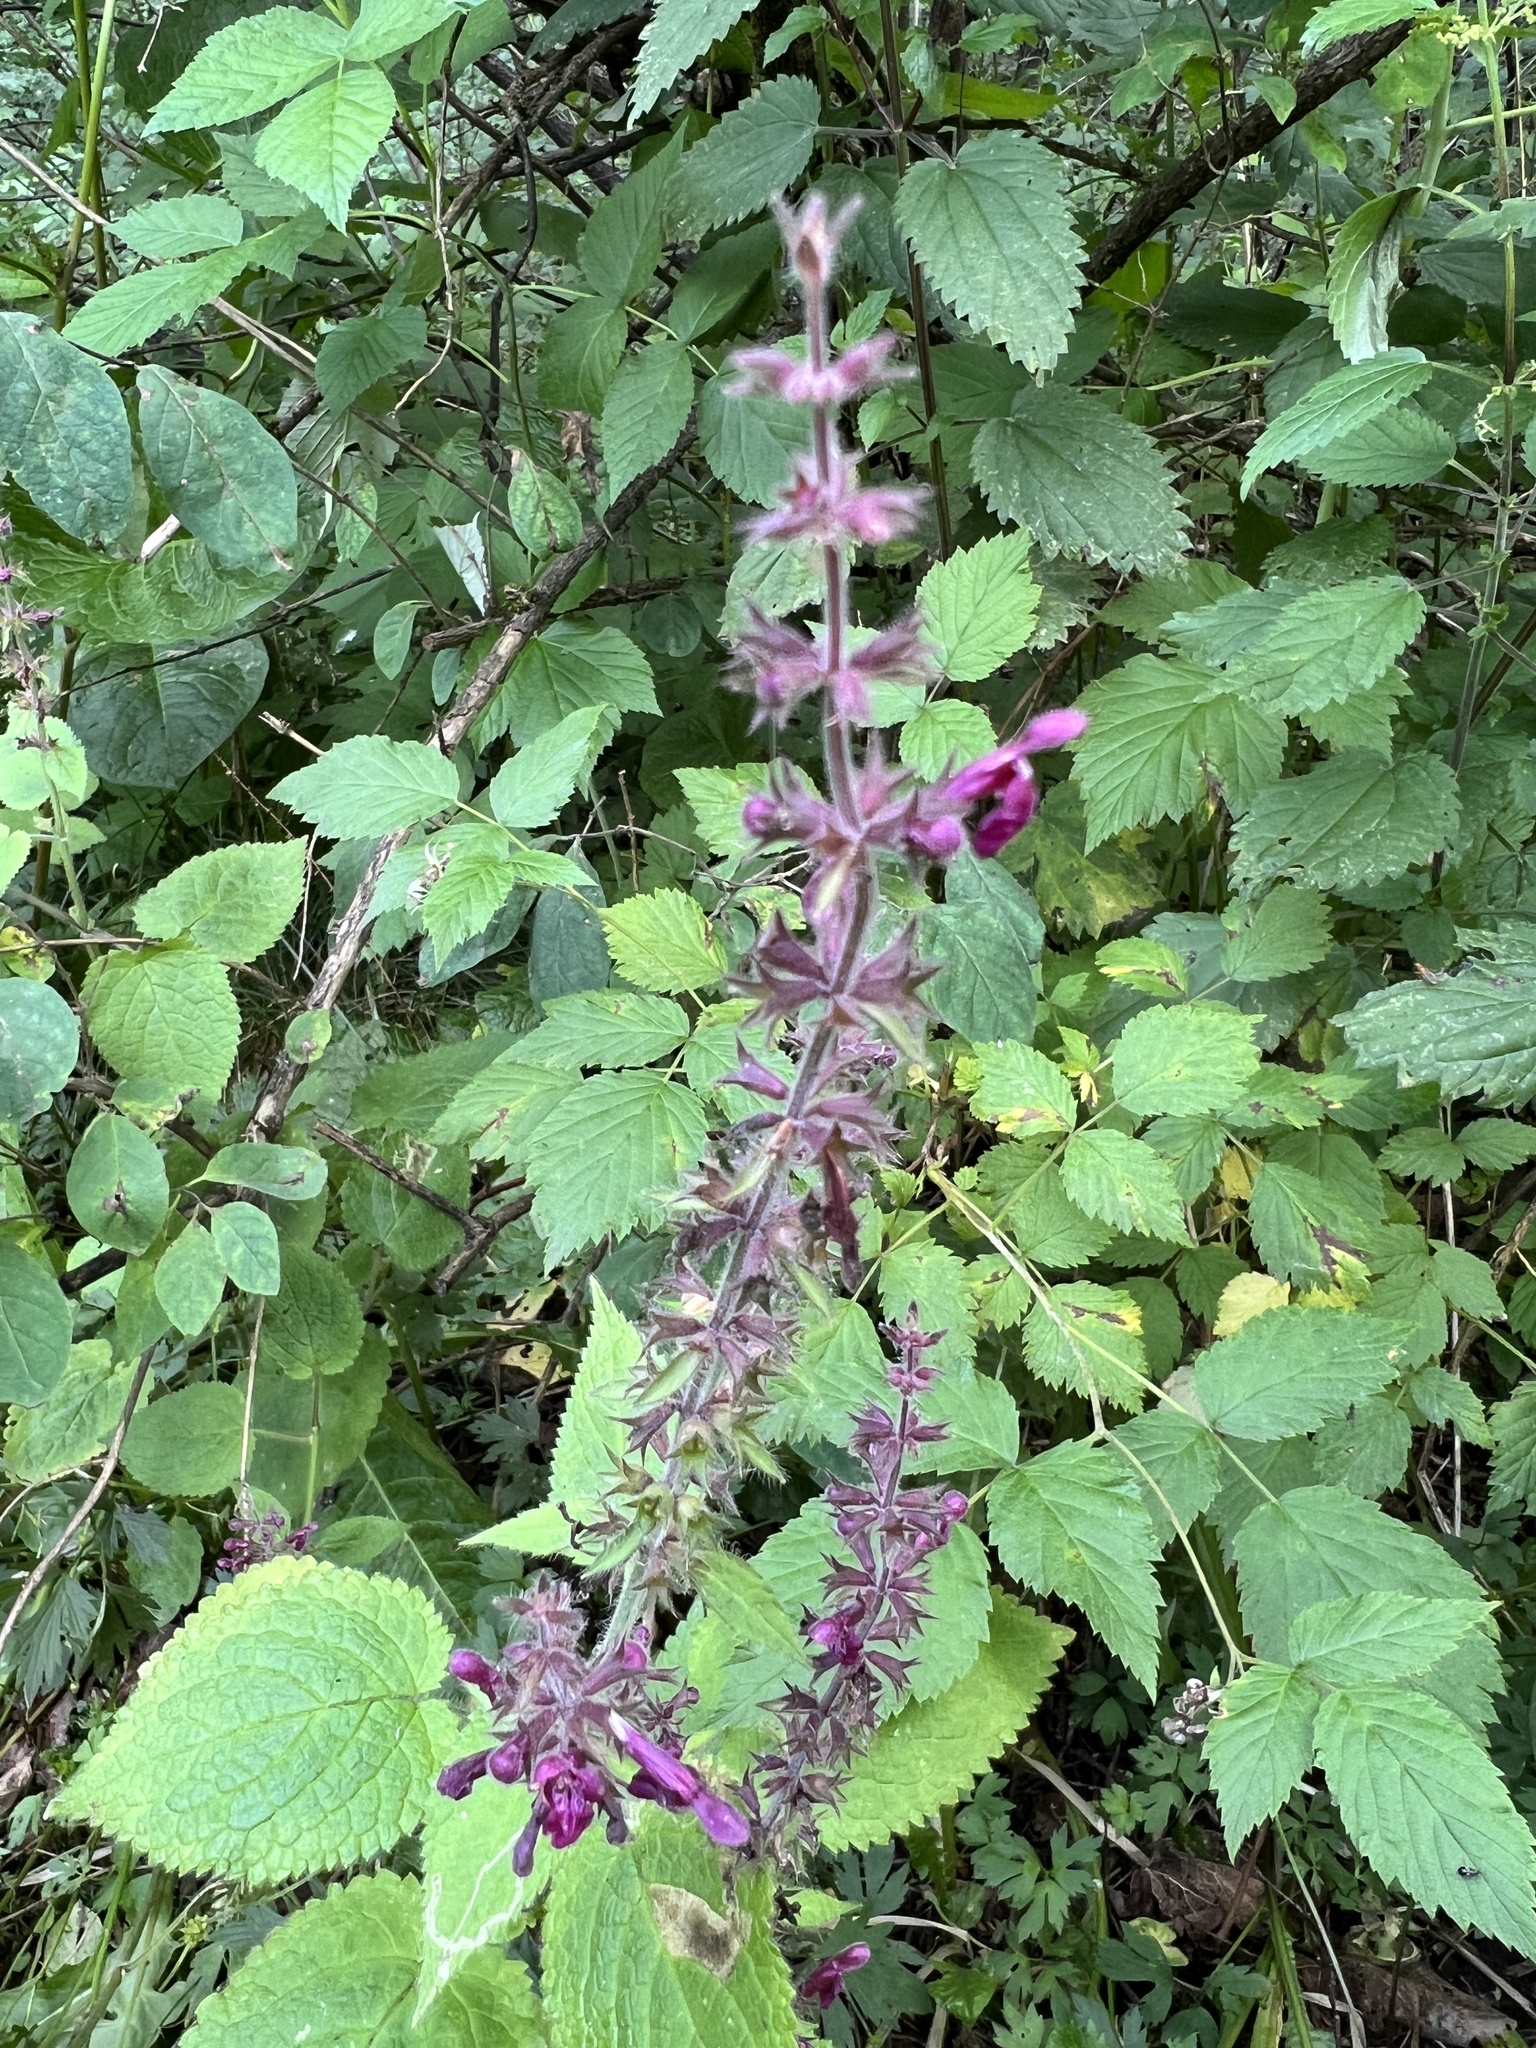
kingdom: Plantae
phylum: Tracheophyta
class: Magnoliopsida
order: Lamiales
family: Lamiaceae
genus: Stachys
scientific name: Stachys sylvatica
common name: Hedge woundwort
